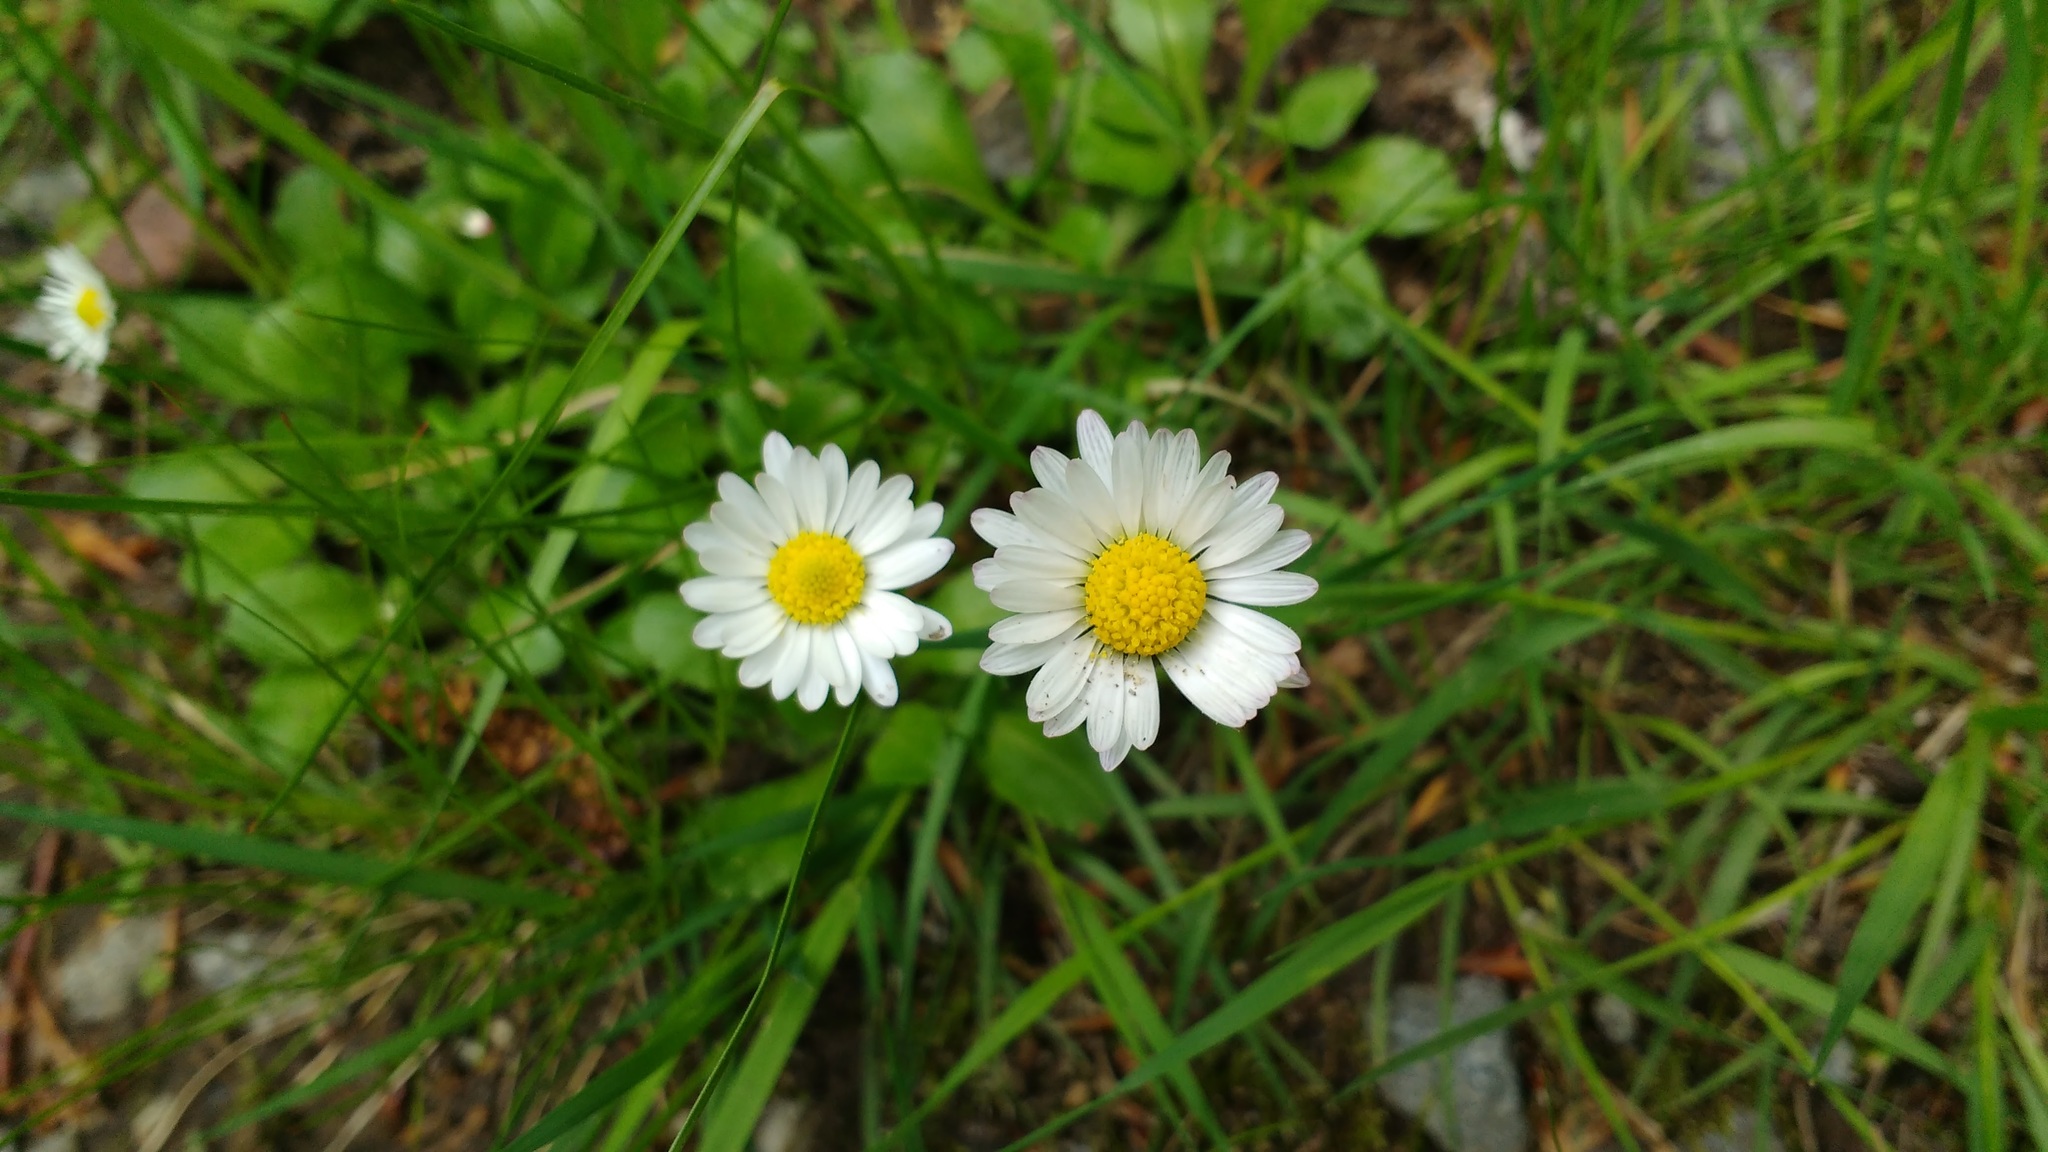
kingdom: Plantae
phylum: Tracheophyta
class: Magnoliopsida
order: Asterales
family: Asteraceae
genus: Bellis
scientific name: Bellis perennis
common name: Lawndaisy
